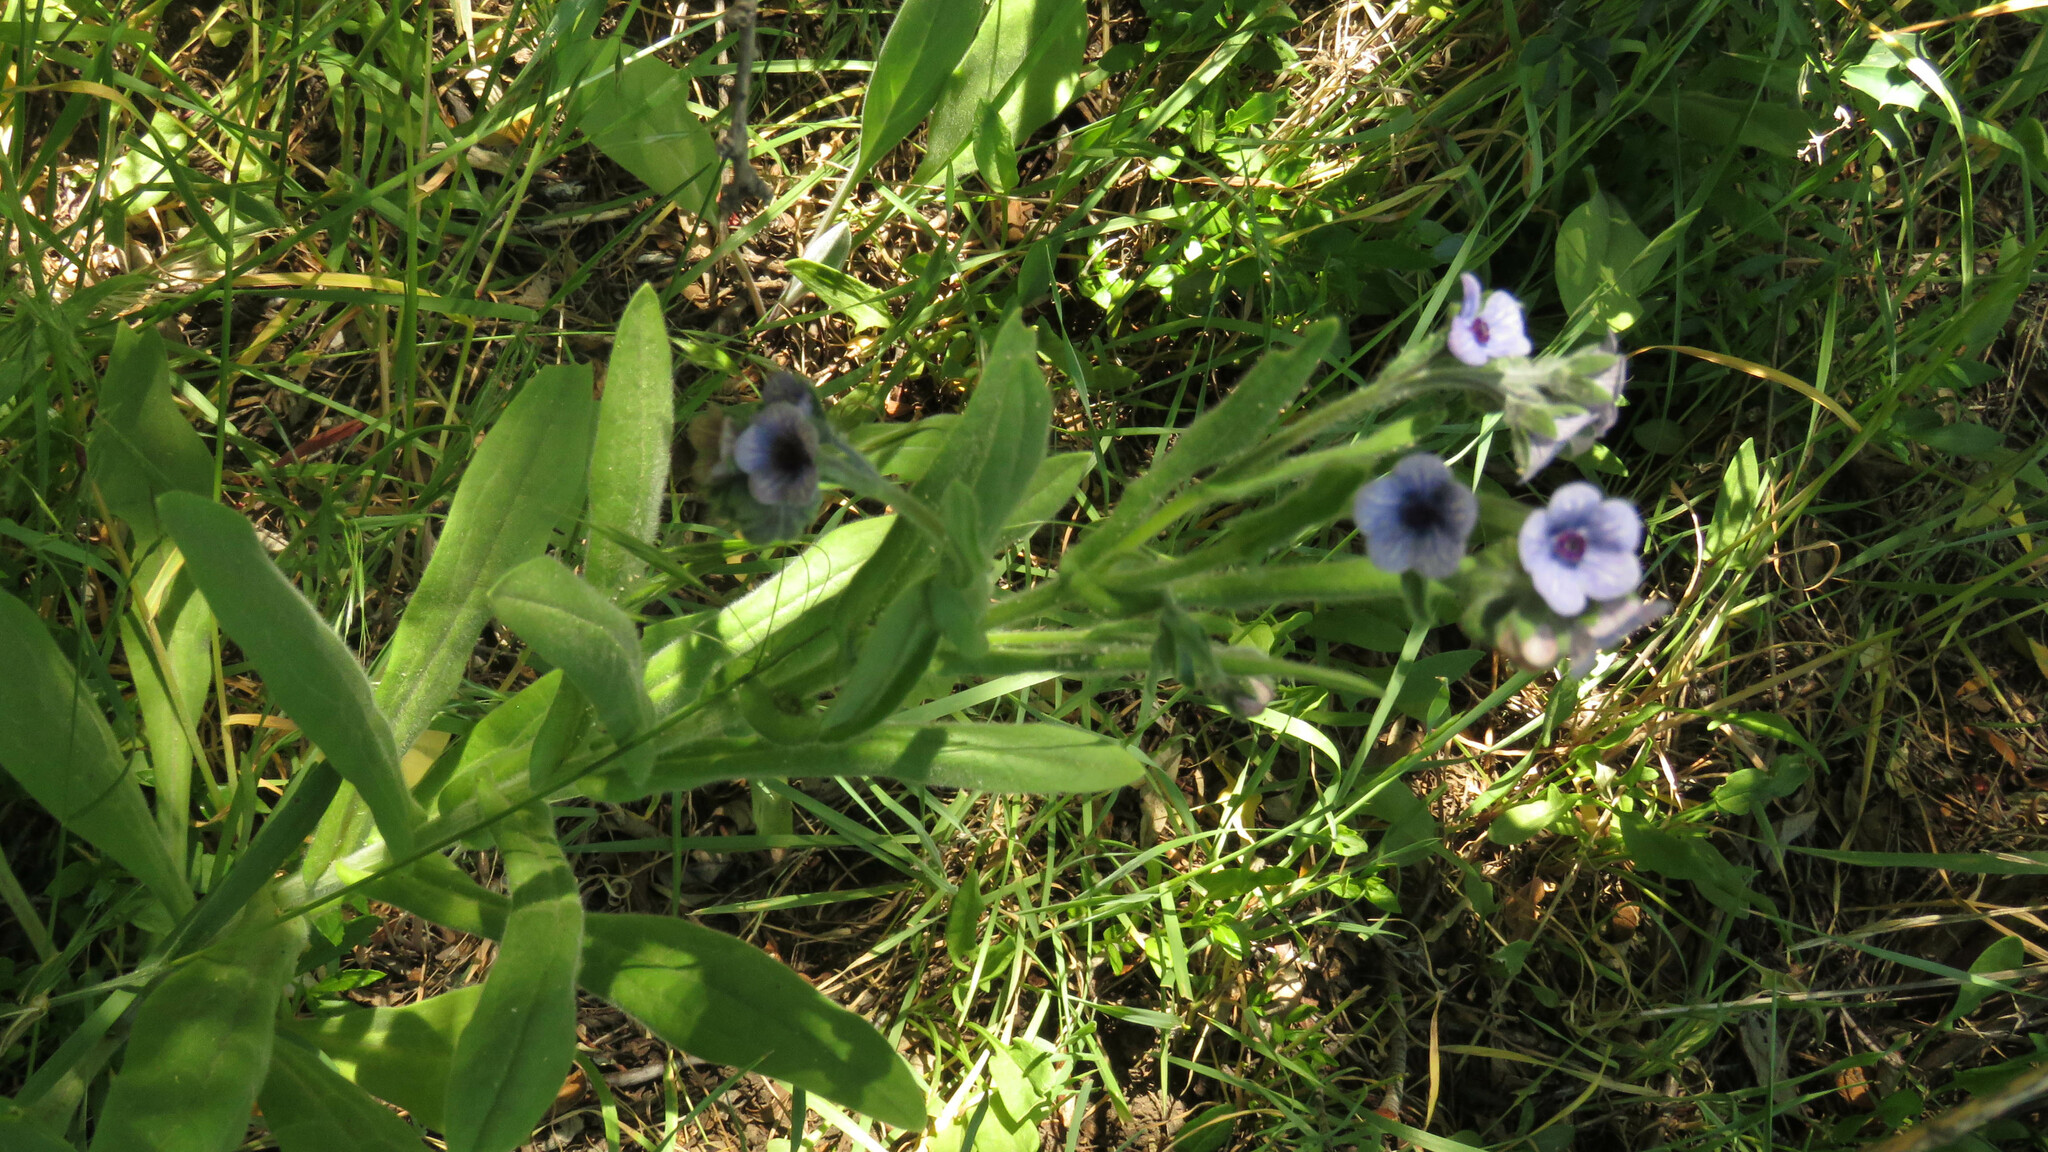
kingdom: Plantae
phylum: Tracheophyta
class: Magnoliopsida
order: Boraginales
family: Boraginaceae
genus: Cynoglossum
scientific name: Cynoglossum creticum
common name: Blue hound's tongue
